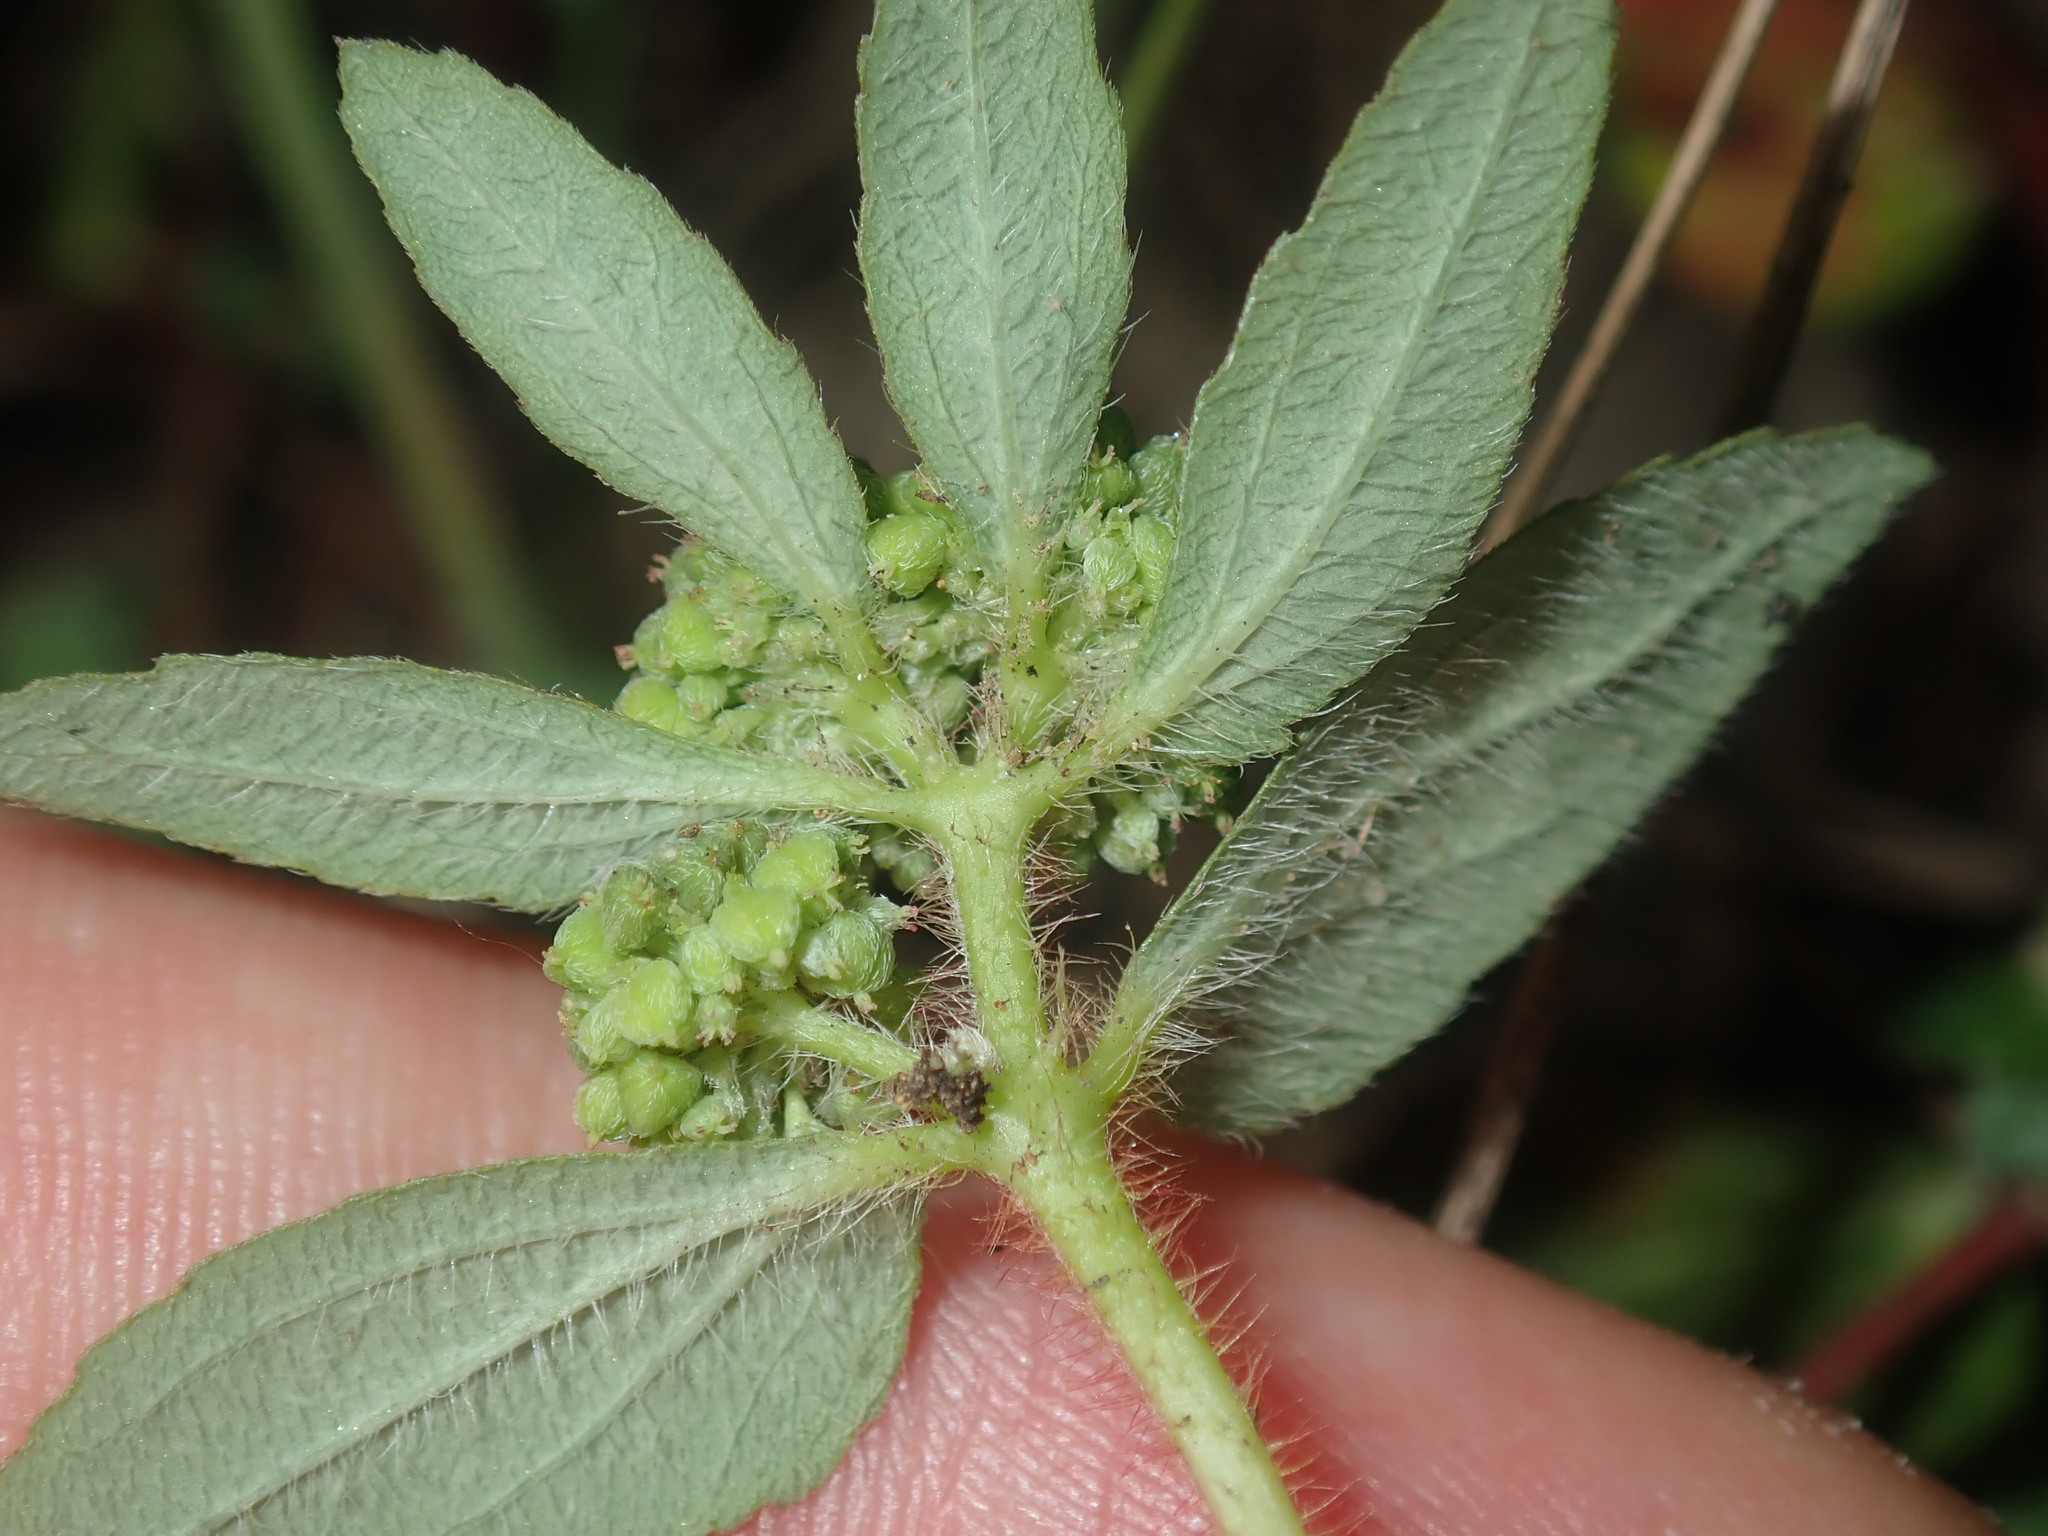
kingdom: Plantae
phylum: Tracheophyta
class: Magnoliopsida
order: Malpighiales
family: Euphorbiaceae
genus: Euphorbia
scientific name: Euphorbia ophthalmica
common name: Florida hammock sandmat
